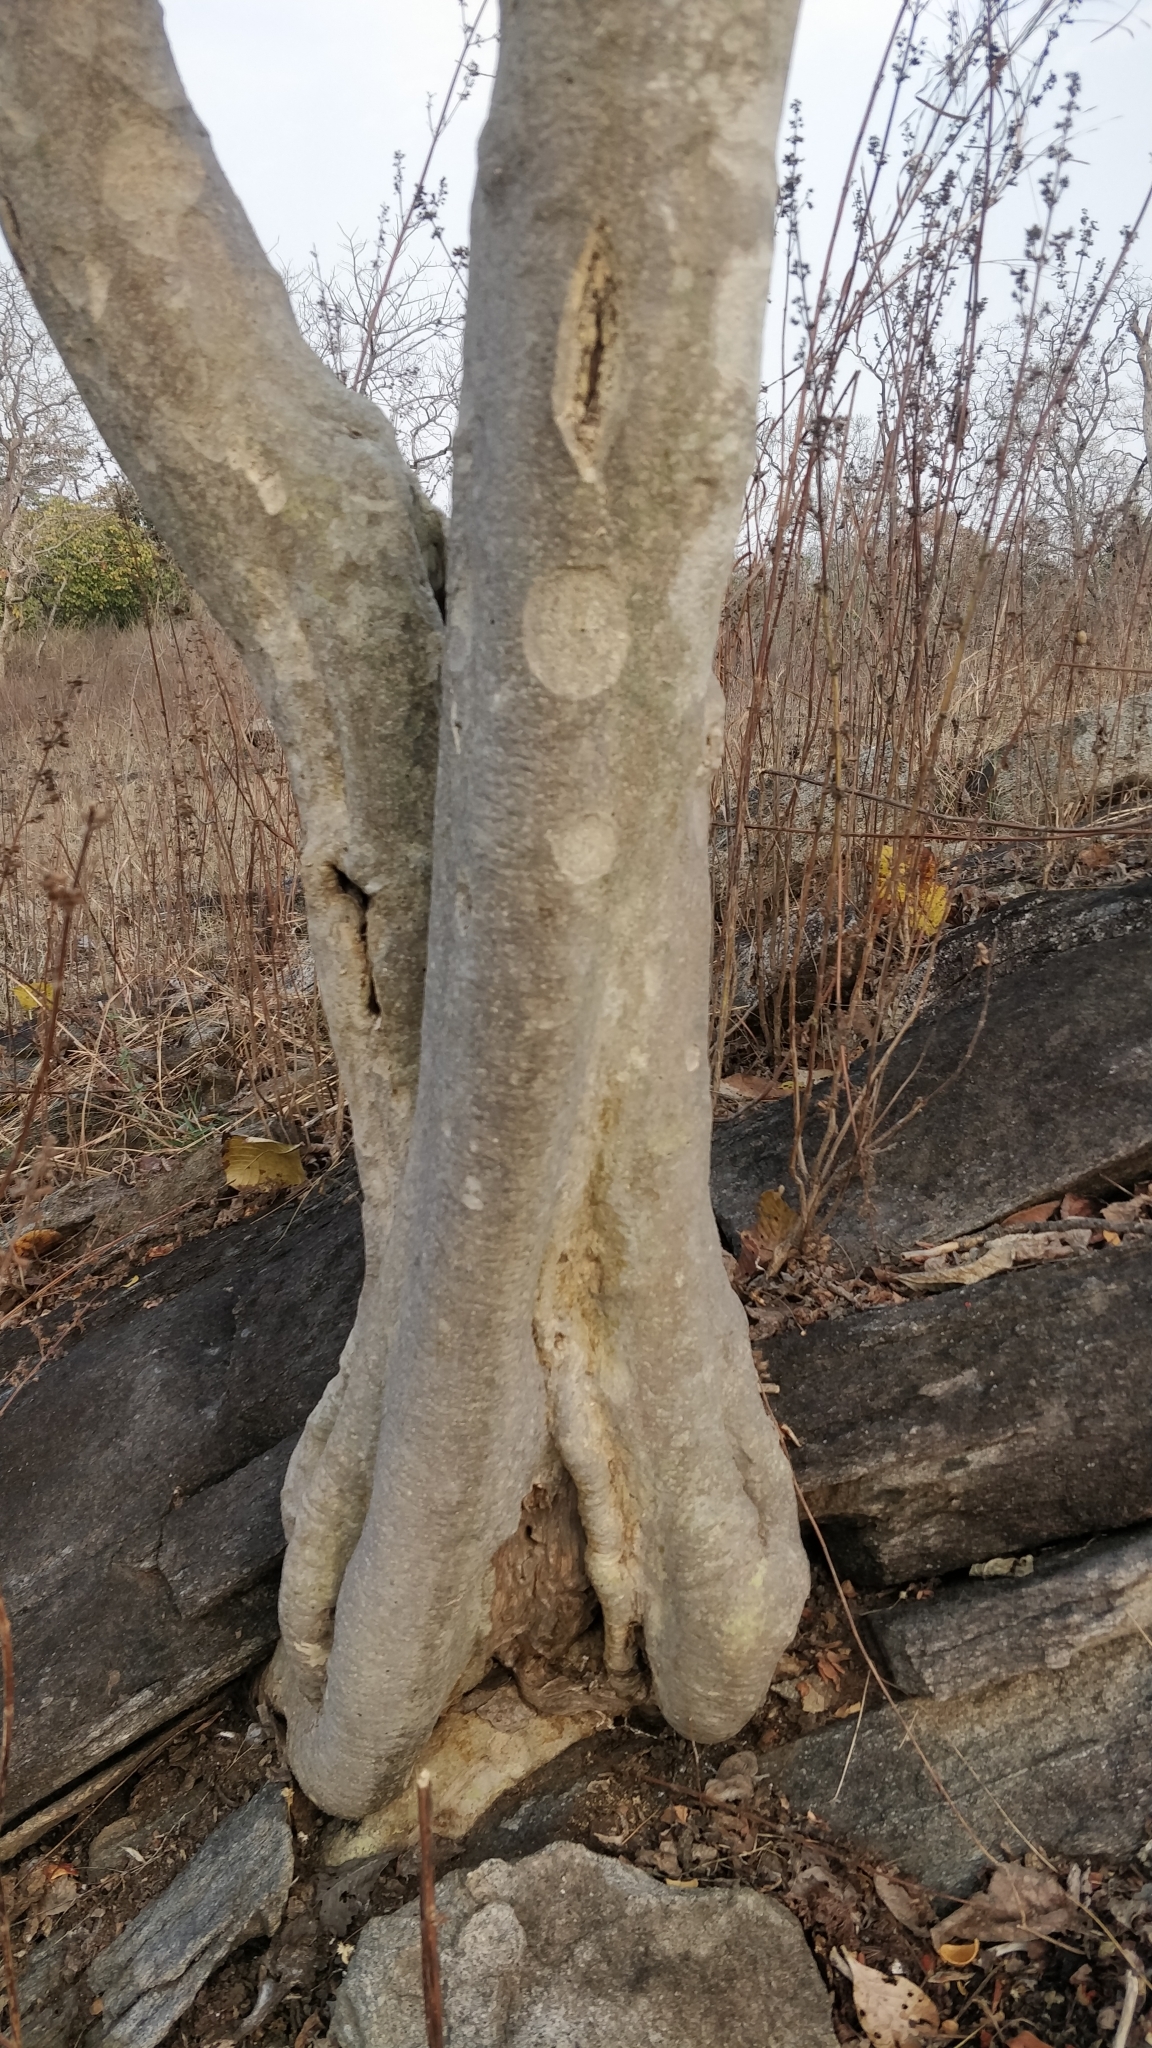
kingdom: Plantae
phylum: Tracheophyta
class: Magnoliopsida
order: Gentianales
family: Rubiaceae
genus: Gardenia
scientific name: Gardenia latifolia
